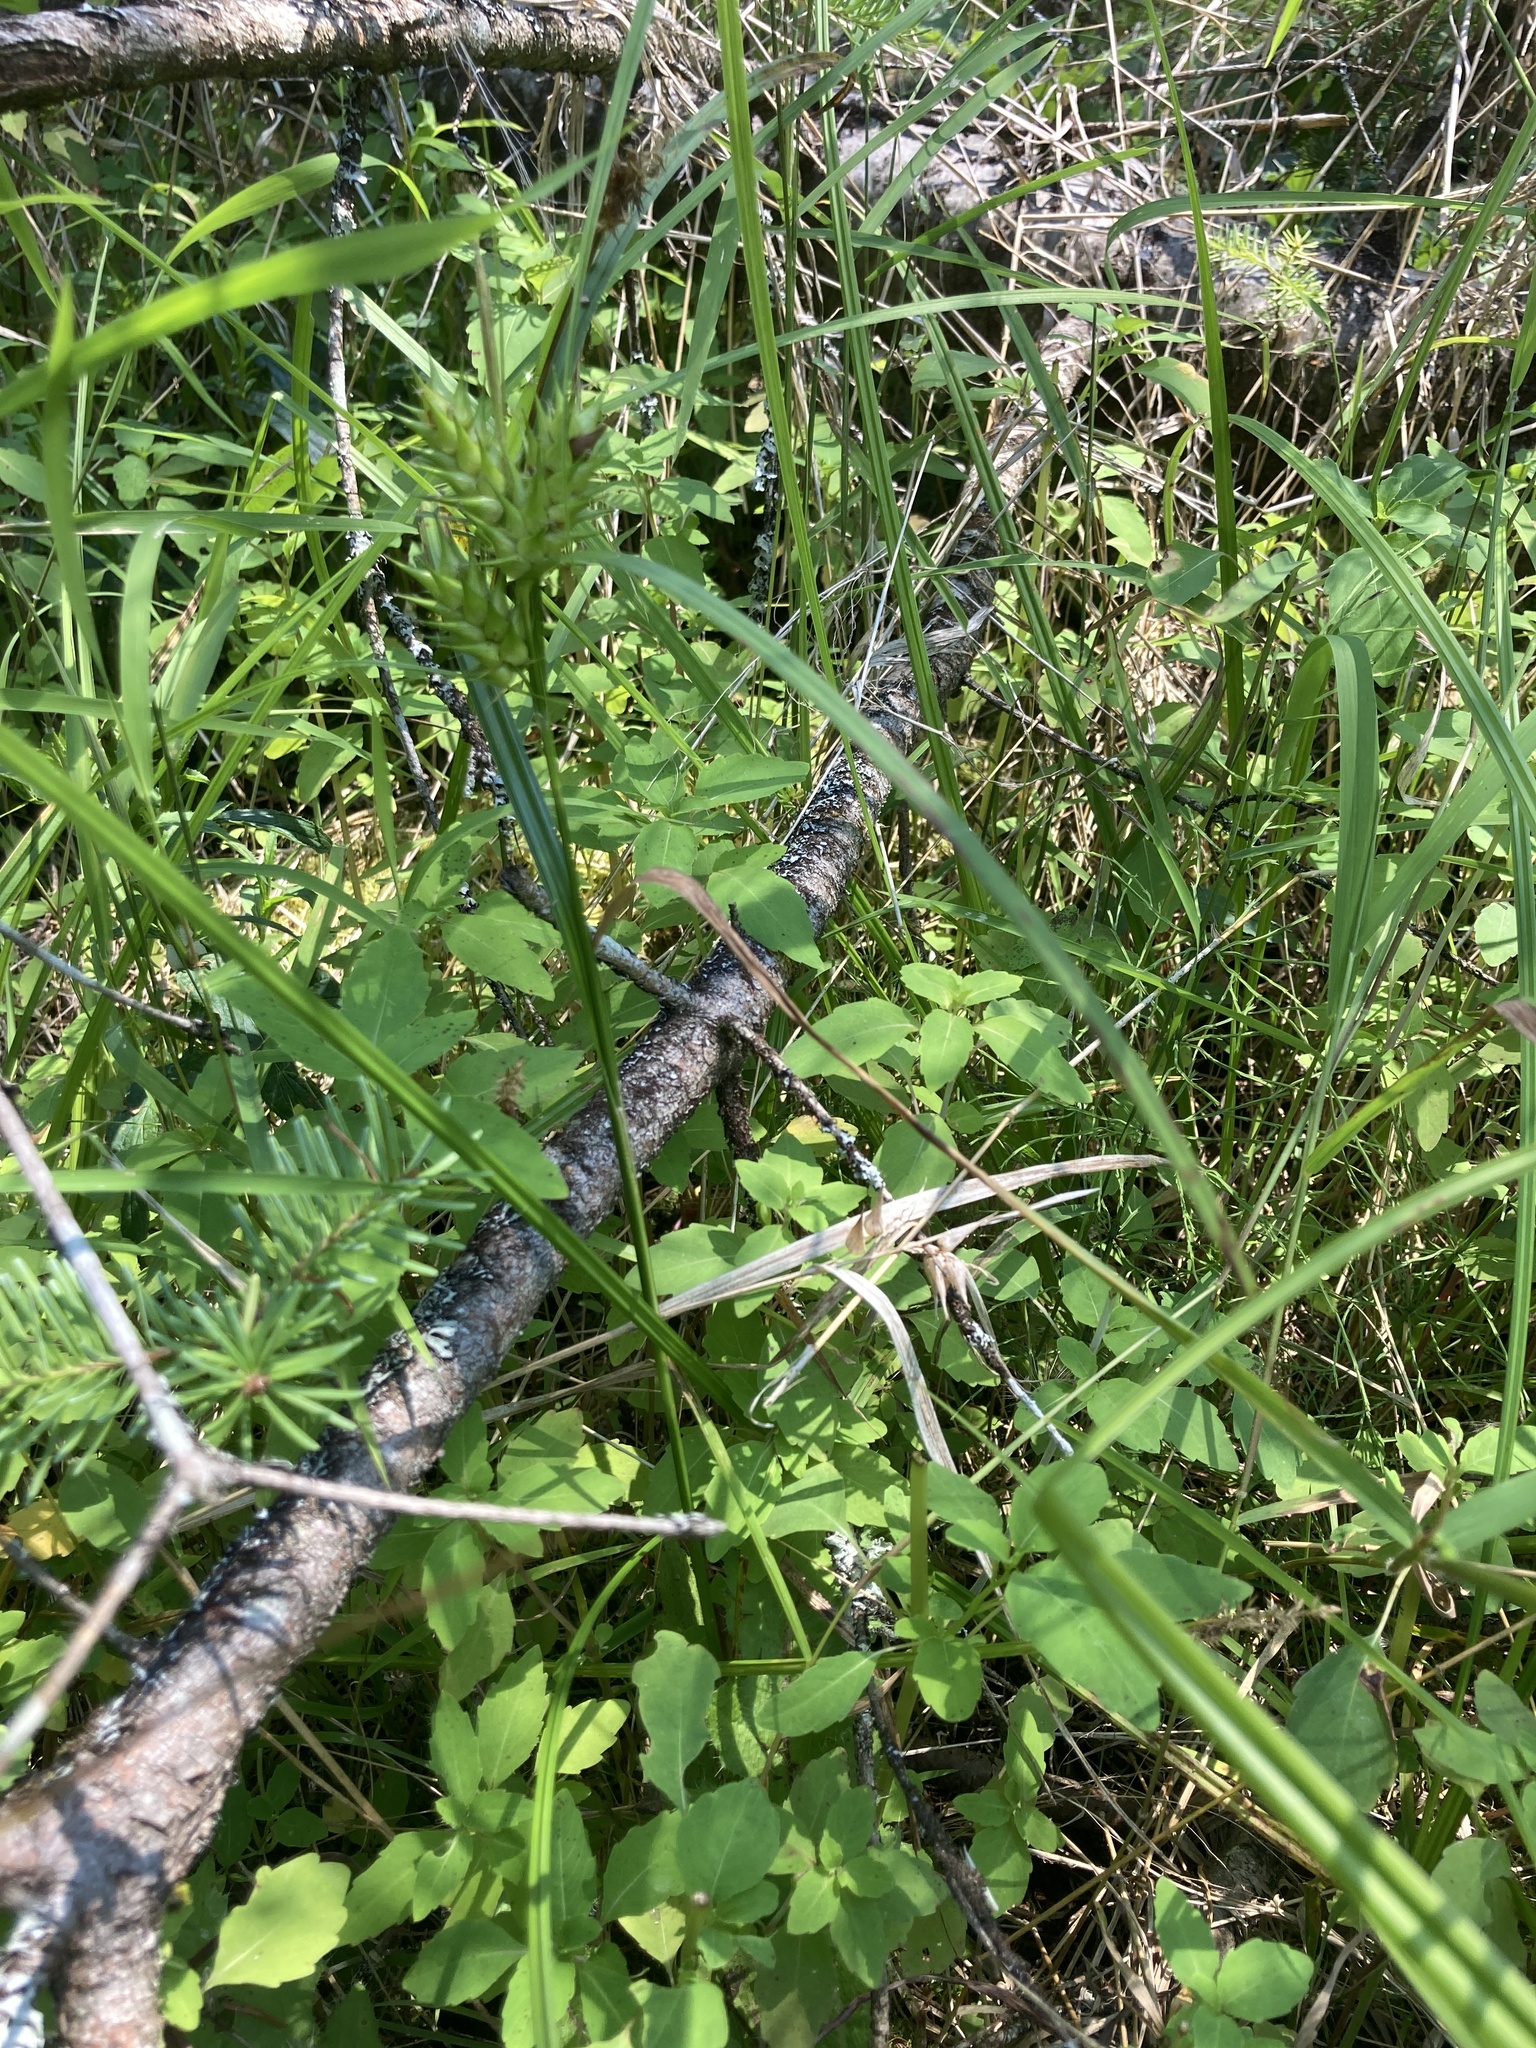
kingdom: Plantae
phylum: Tracheophyta
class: Liliopsida
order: Poales
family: Cyperaceae
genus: Carex
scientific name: Carex lupulina
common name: Hop sedge
